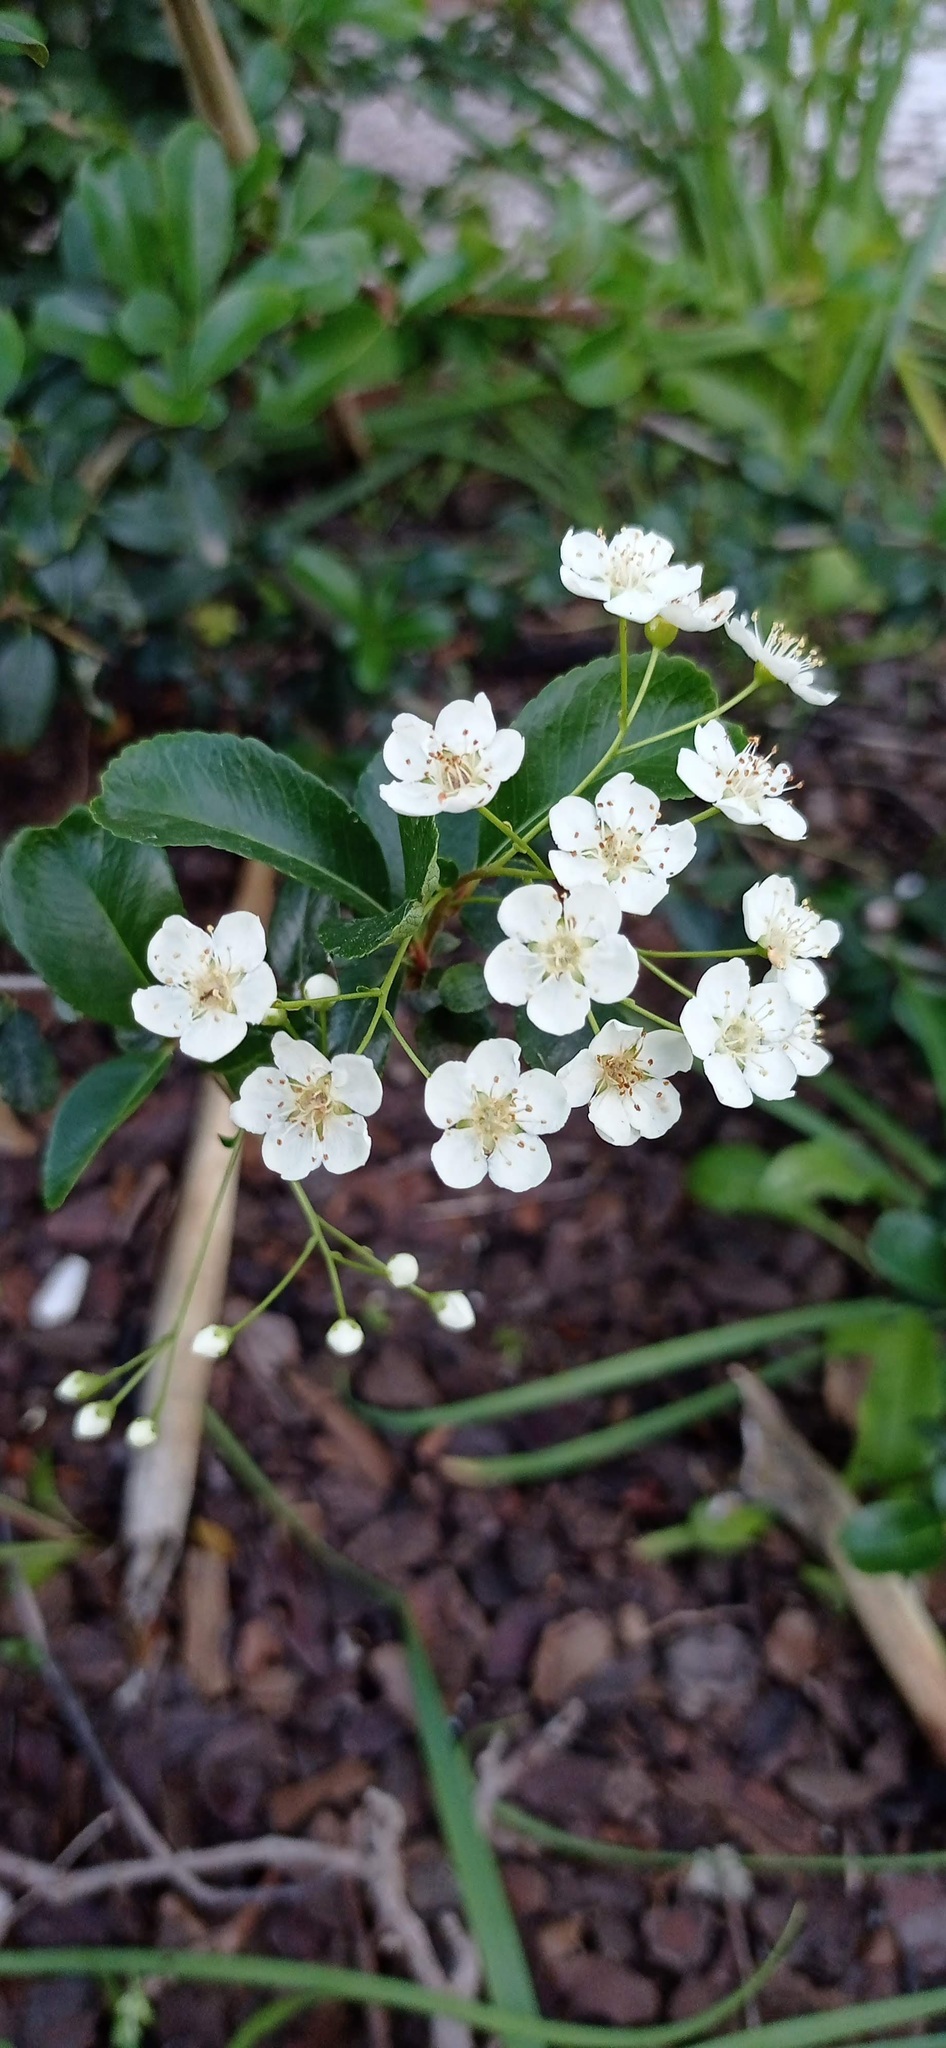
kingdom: Plantae
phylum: Tracheophyta
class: Magnoliopsida
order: Rosales
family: Rosaceae
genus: Crataegus
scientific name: Crataegus monogyna
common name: Hawthorn
